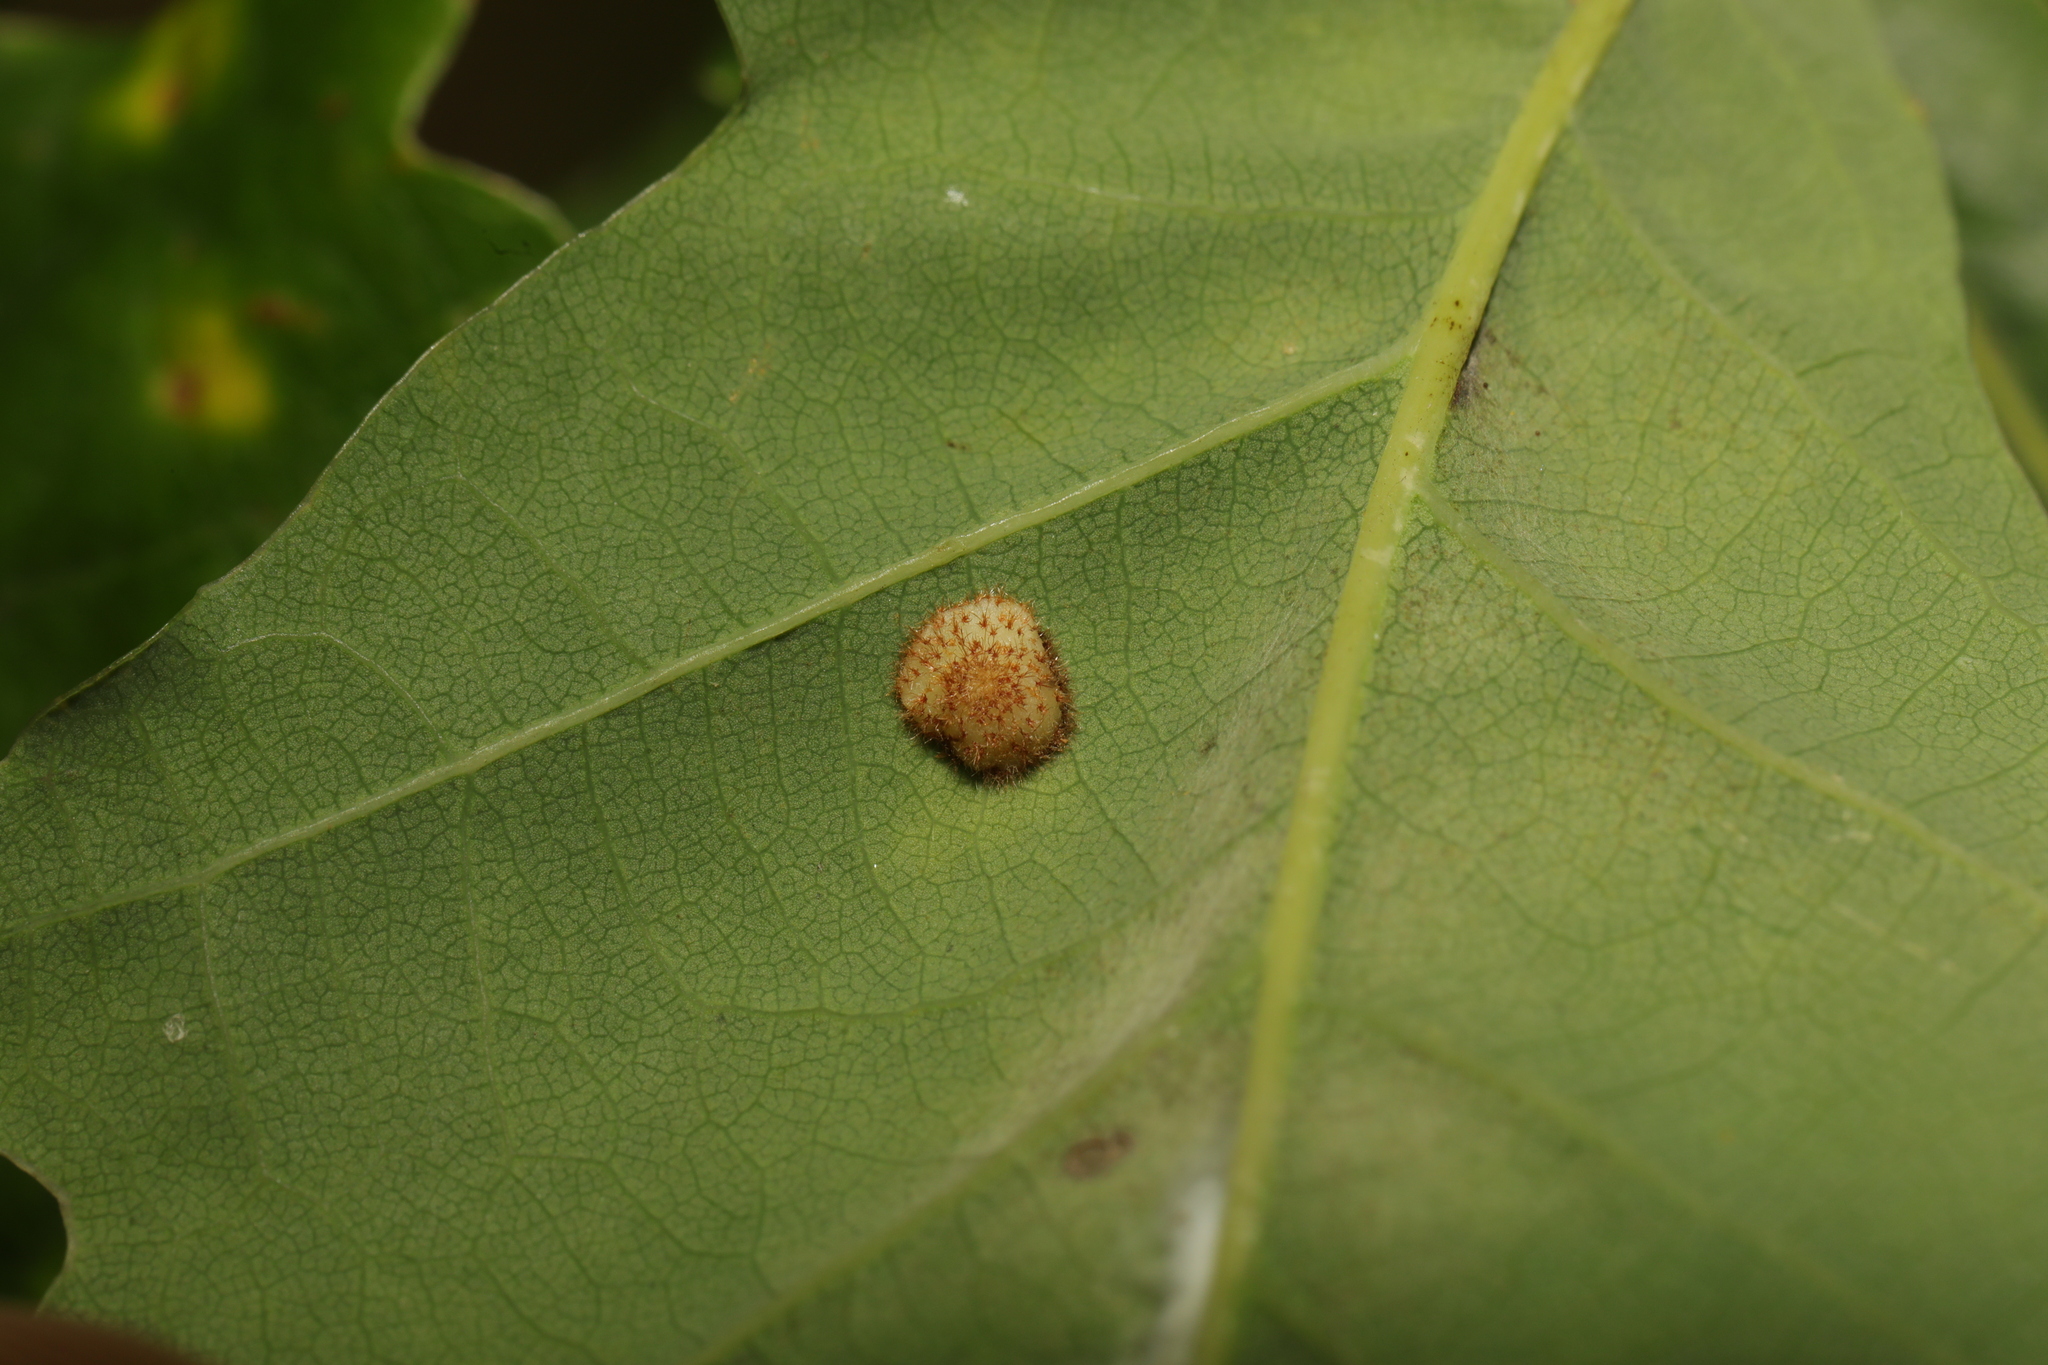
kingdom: Animalia
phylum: Arthropoda
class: Insecta
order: Hymenoptera
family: Cynipidae
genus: Neuroterus
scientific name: Neuroterus quercusbaccarum
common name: Common spangle gall
